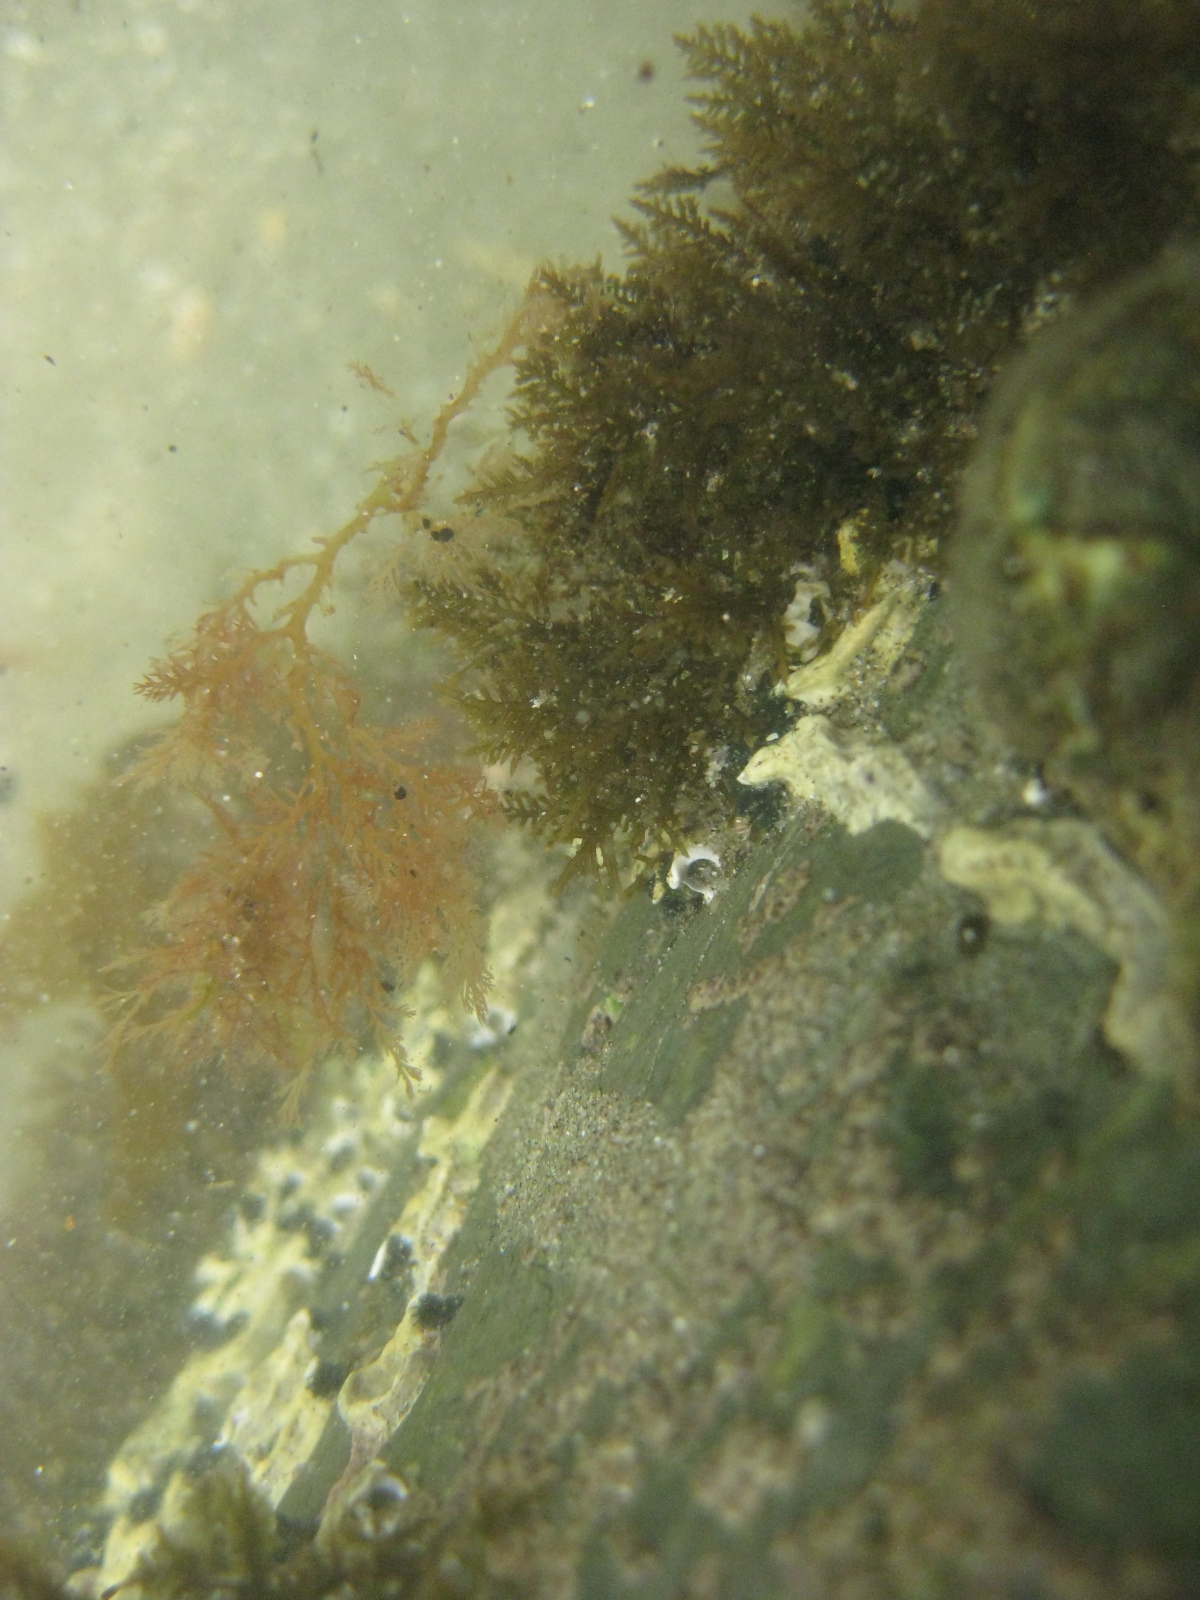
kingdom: Animalia
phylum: Annelida
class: Polychaeta
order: Sabellida
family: Serpulidae
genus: Spirobranchus
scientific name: Spirobranchus cariniferus
